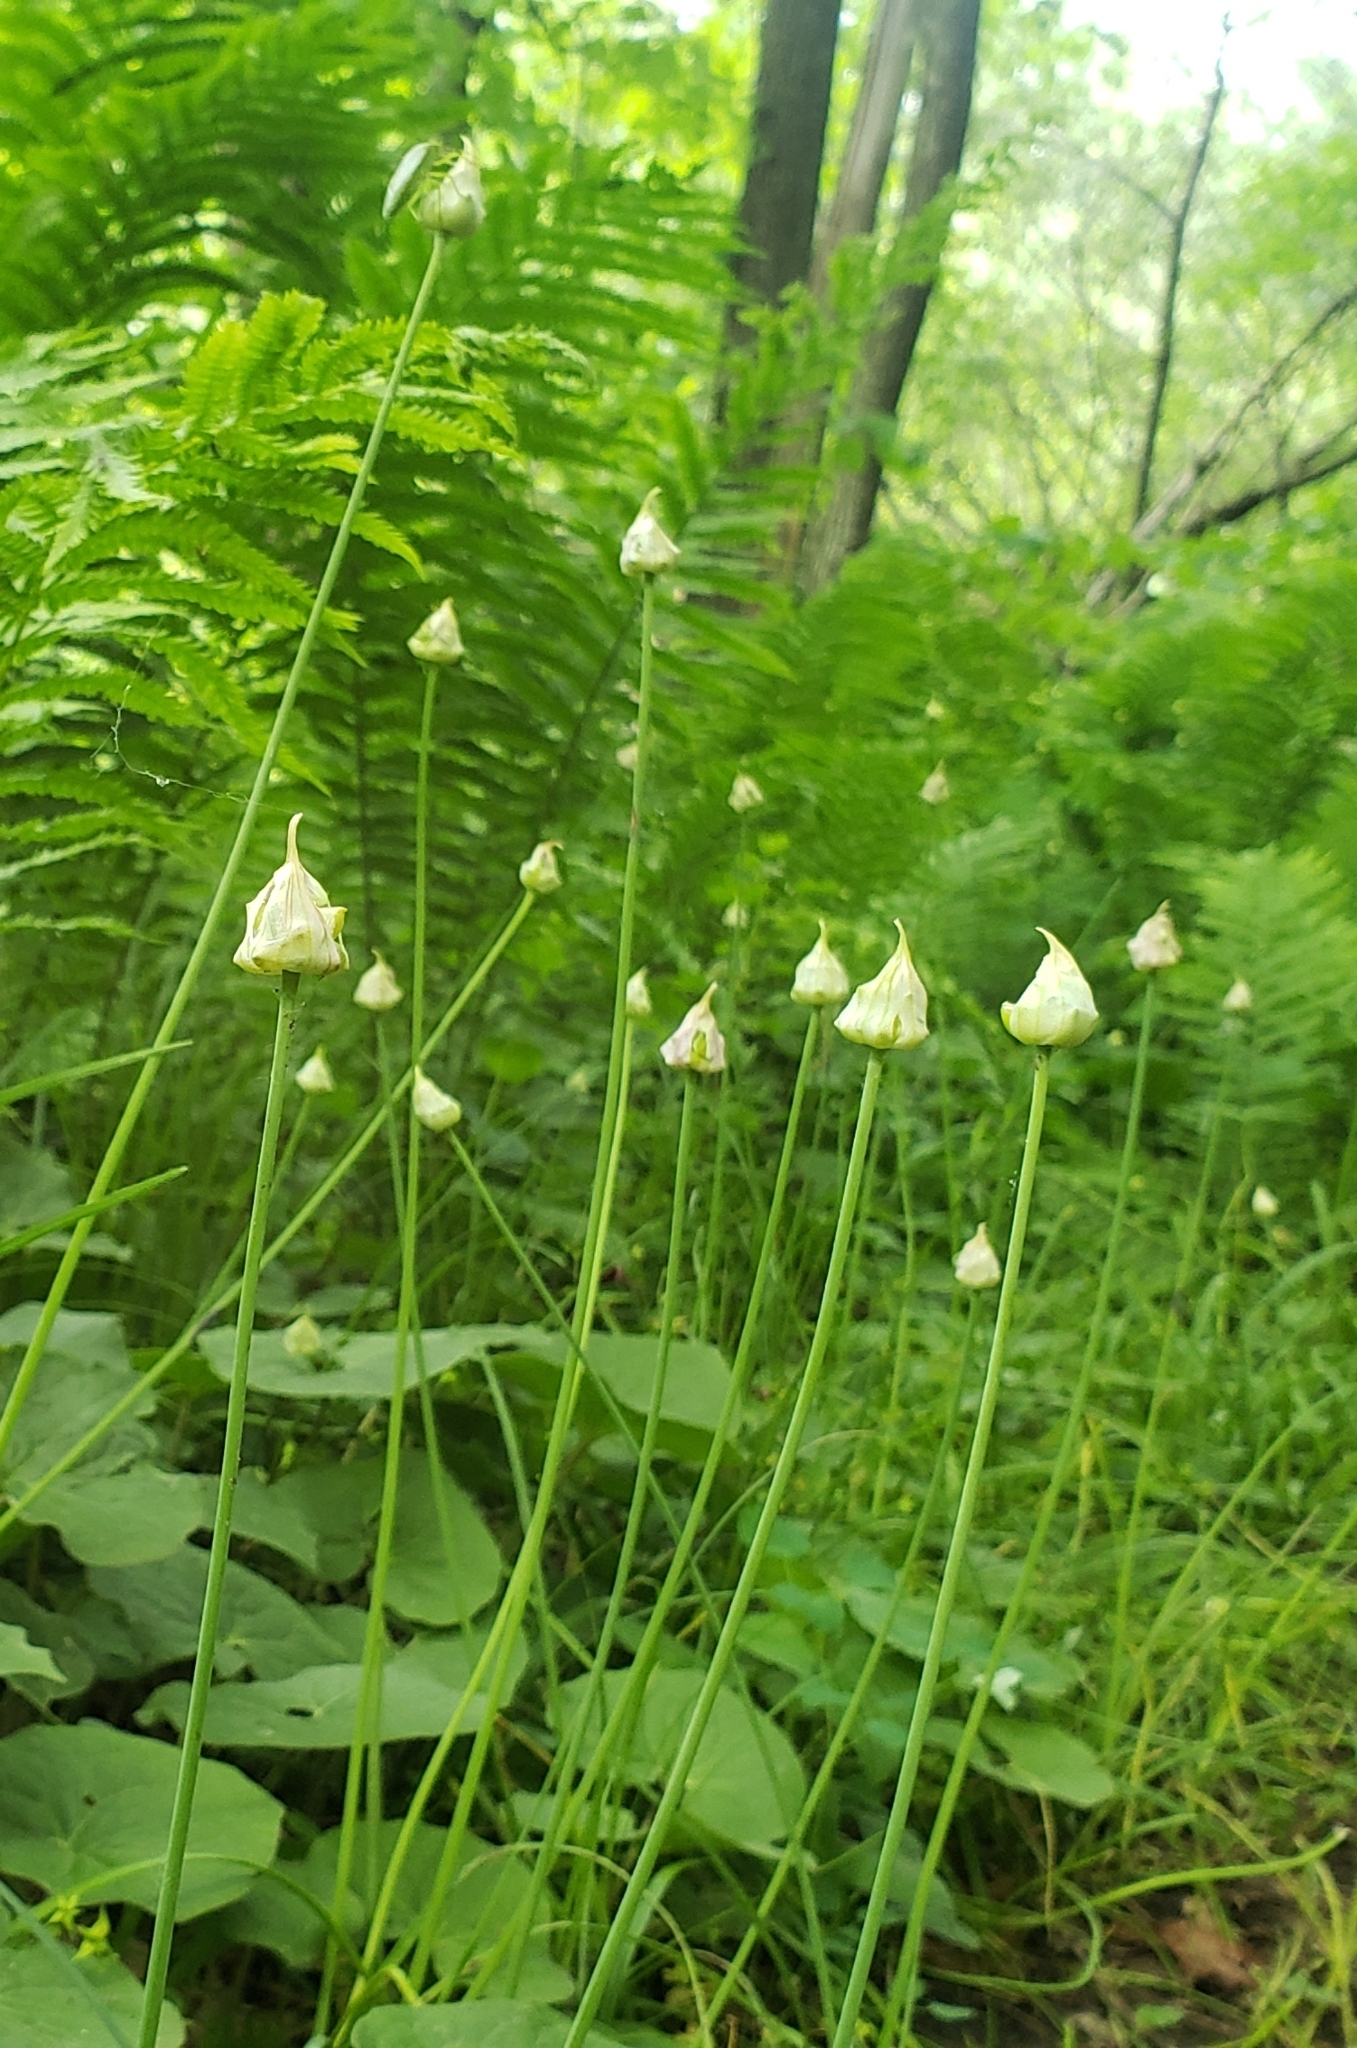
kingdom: Plantae
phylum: Tracheophyta
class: Liliopsida
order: Asparagales
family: Amaryllidaceae
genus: Allium
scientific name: Allium canadense
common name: Meadow garlic
